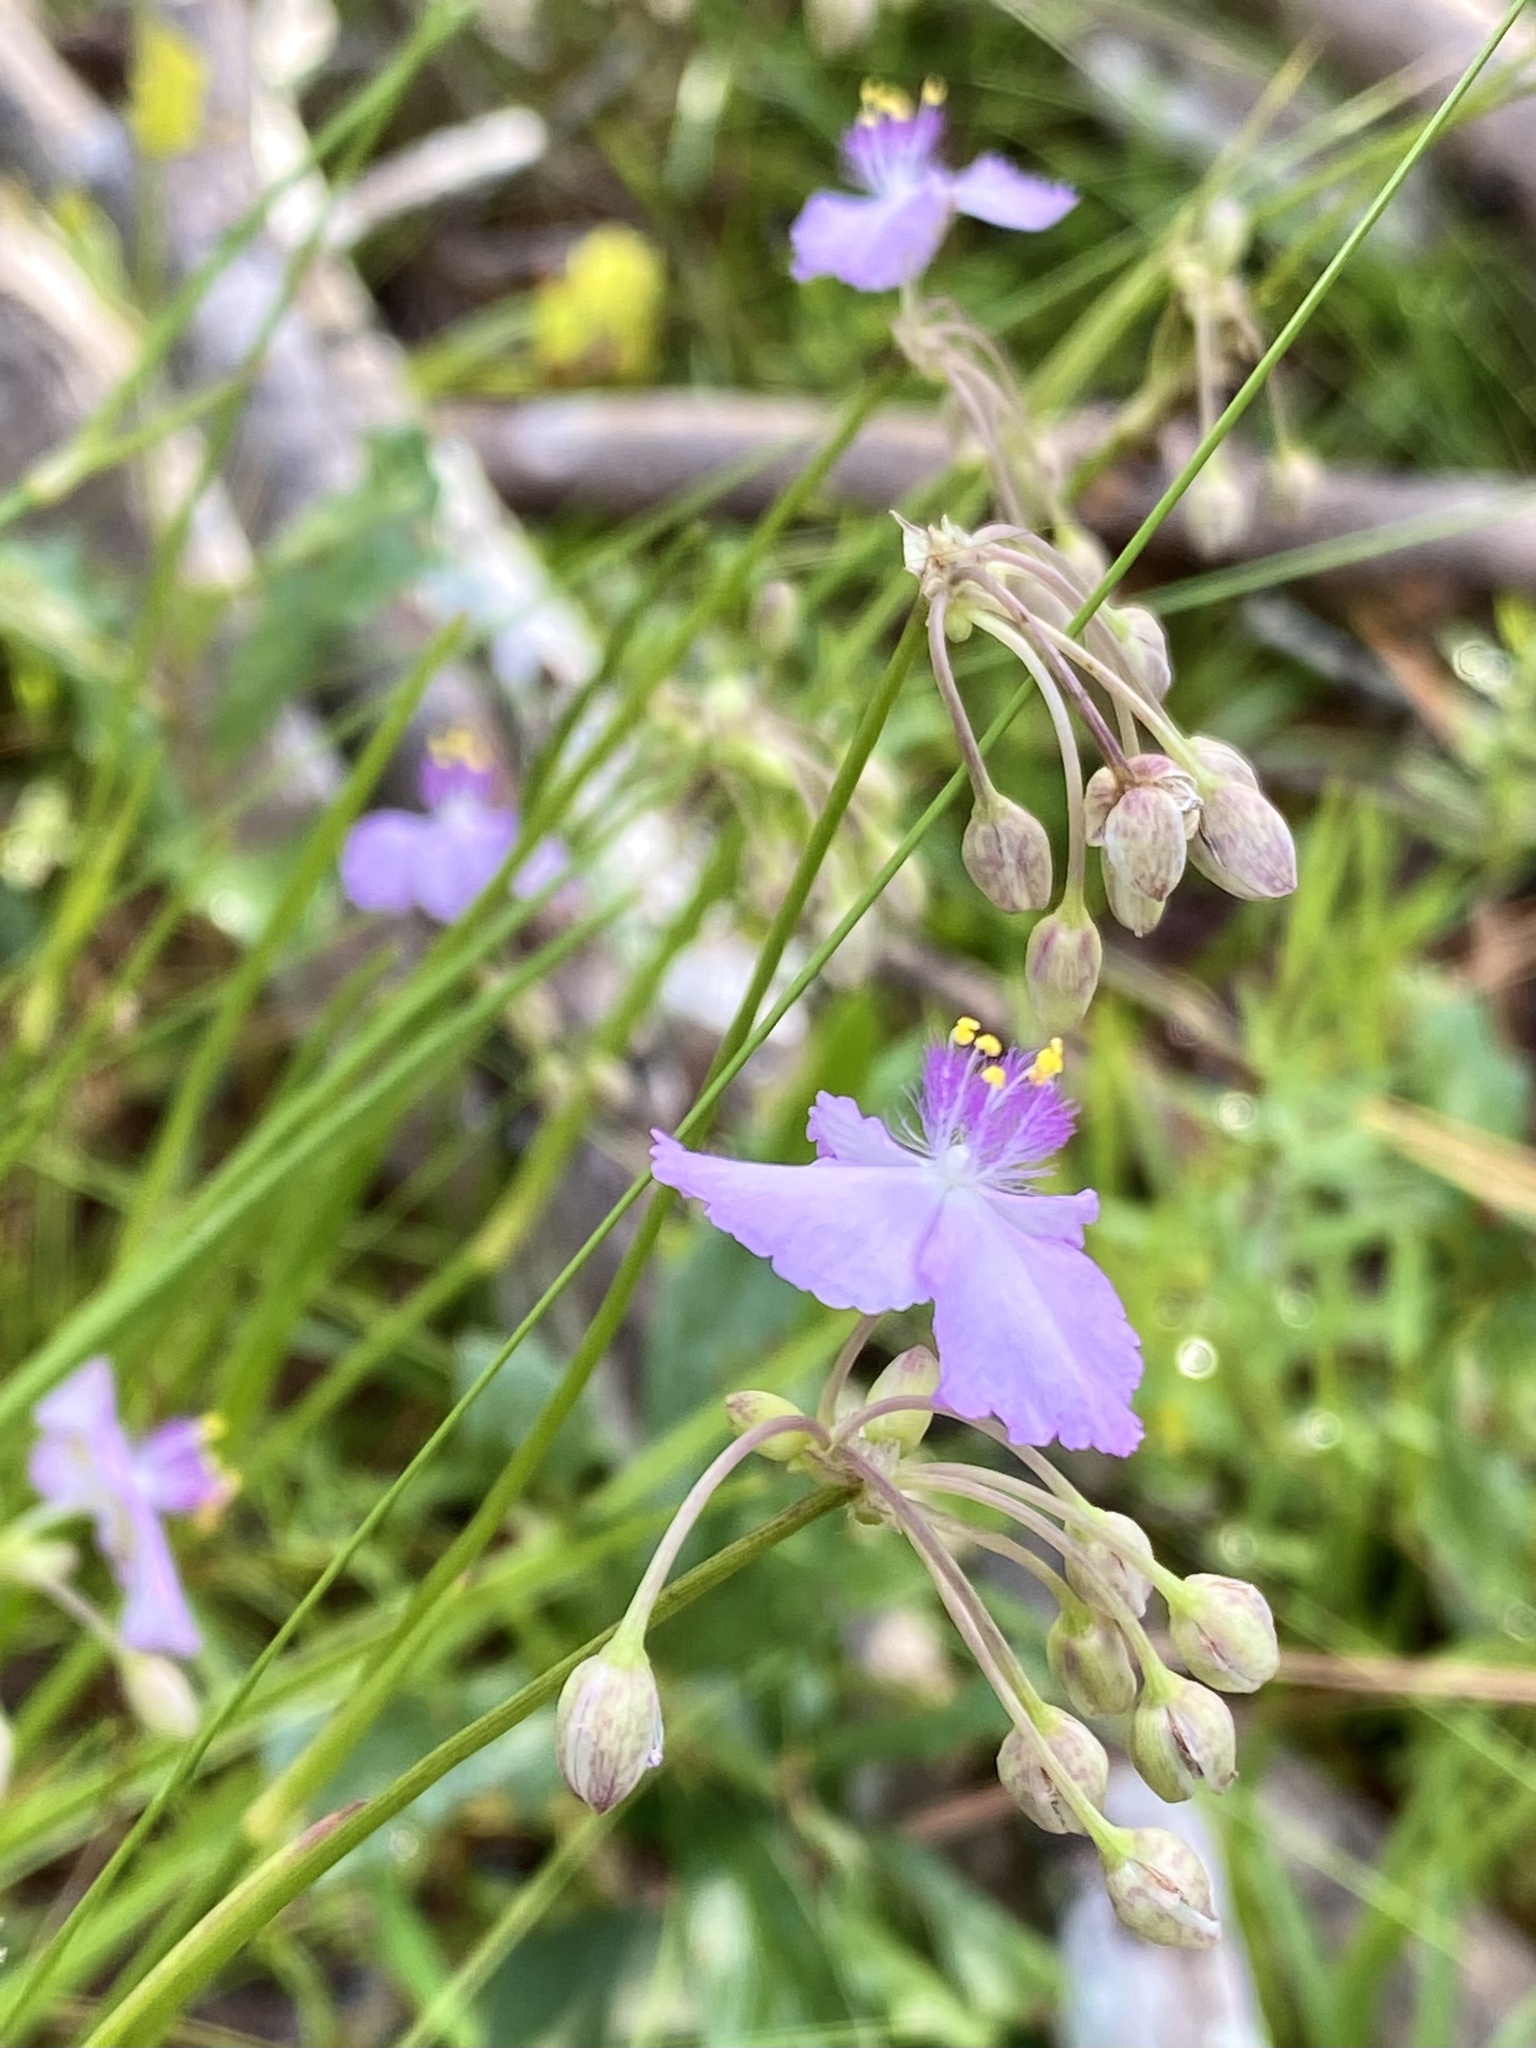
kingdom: Plantae
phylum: Tracheophyta
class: Liliopsida
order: Commelinales
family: Commelinaceae
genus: Callisia
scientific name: Callisia ornata
